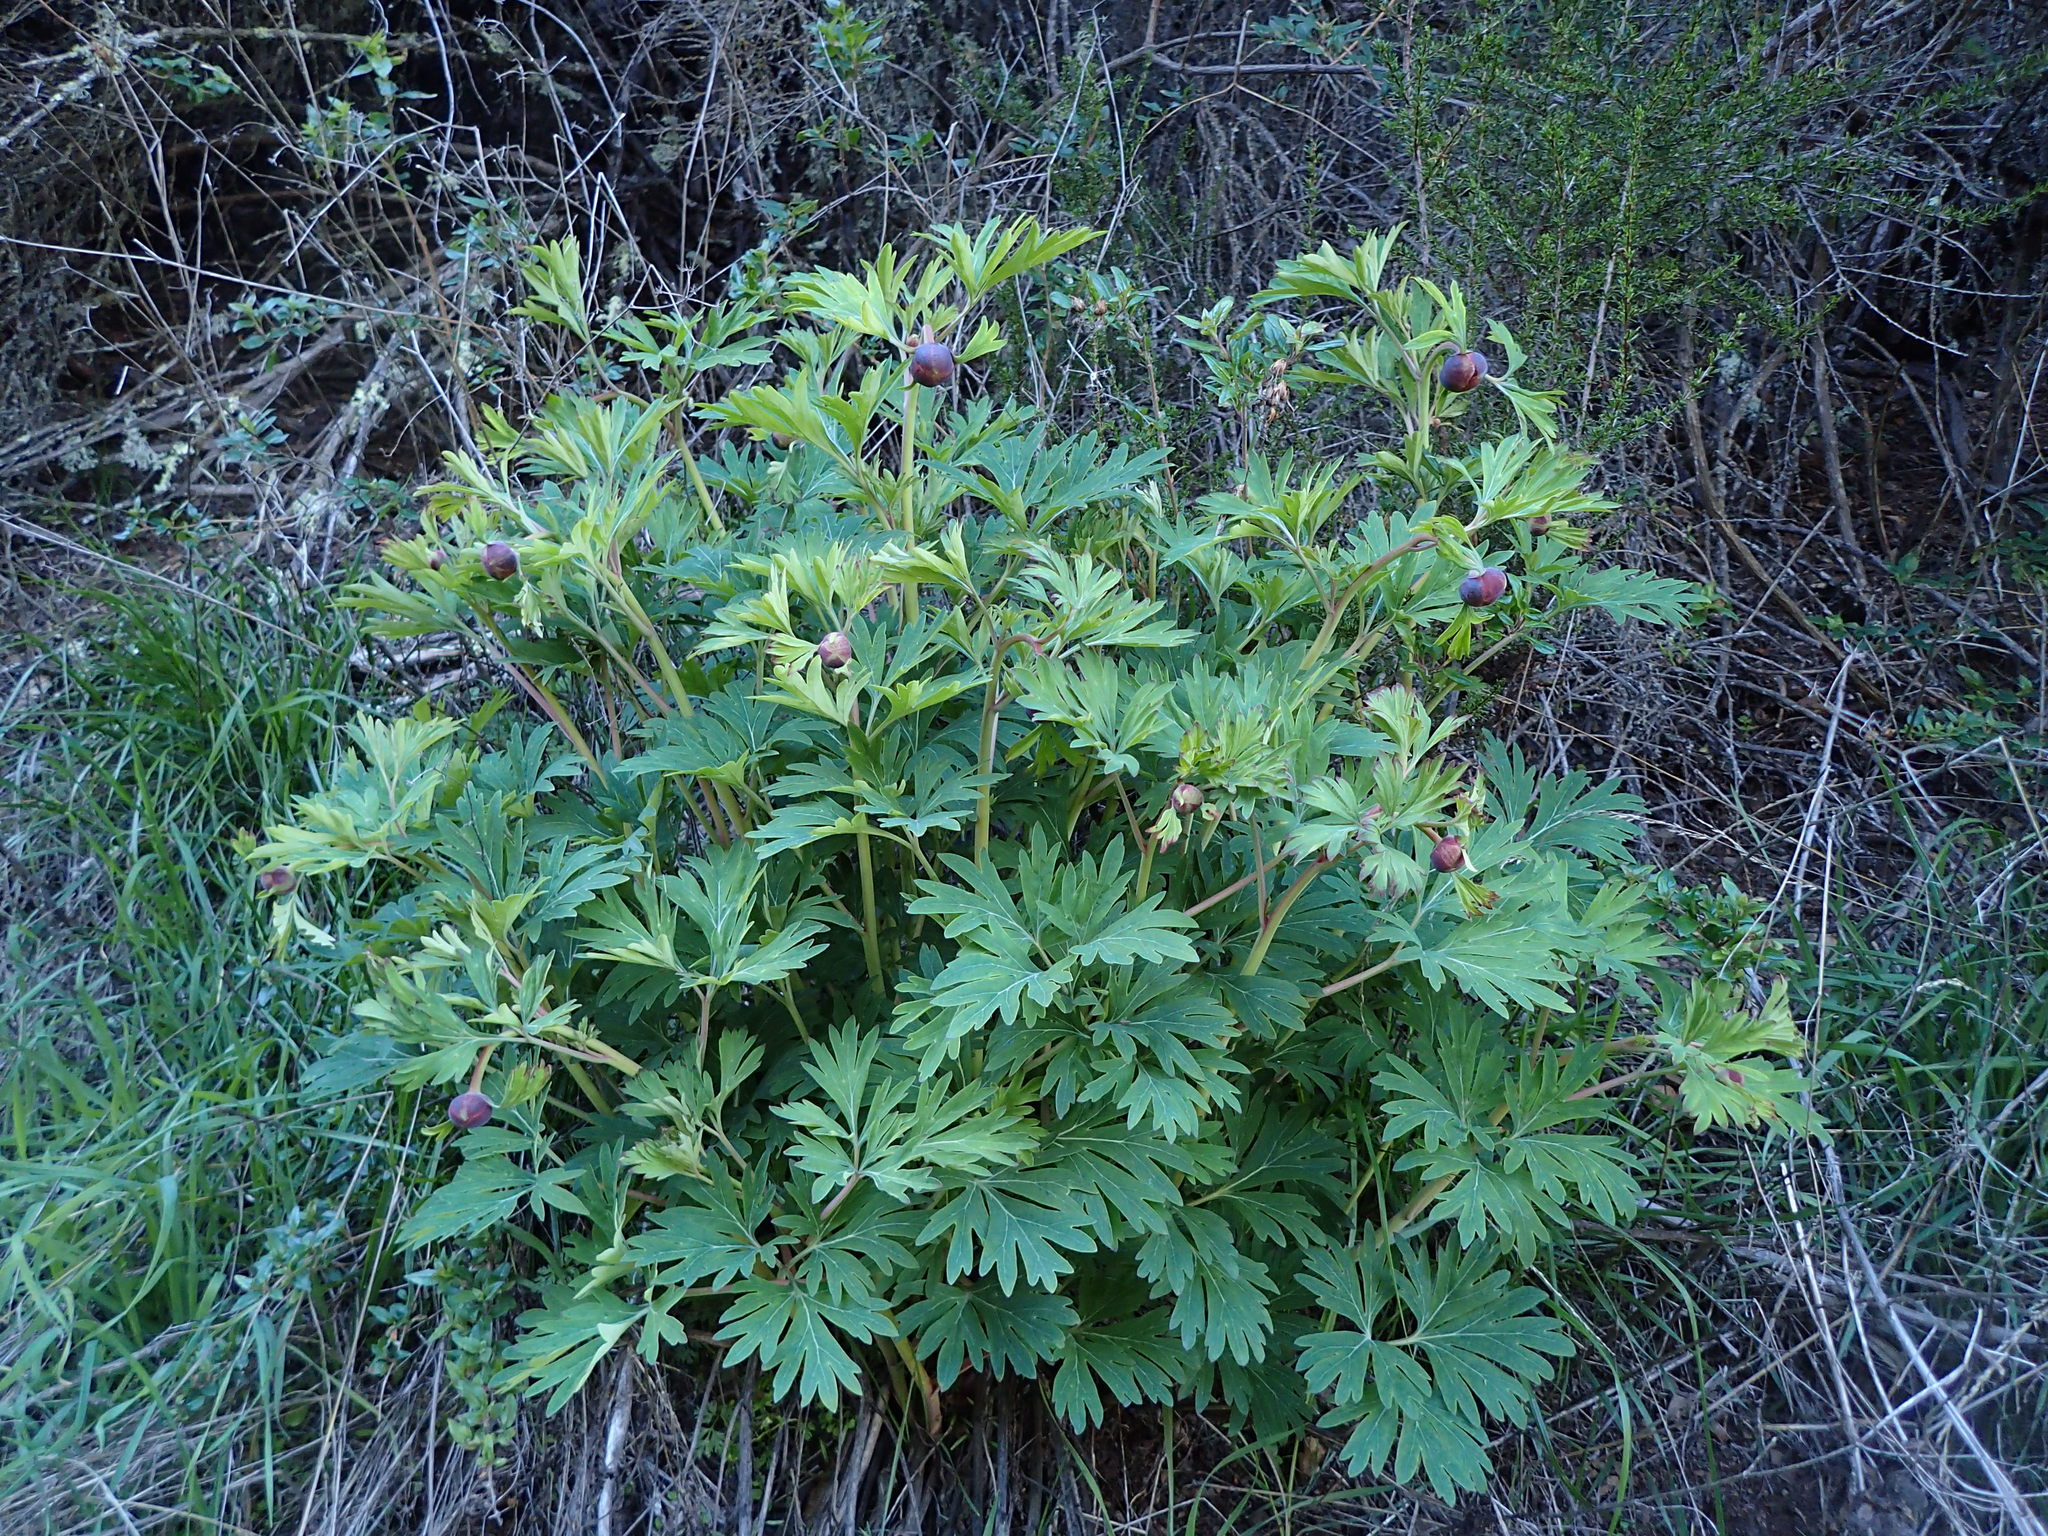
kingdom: Plantae
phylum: Tracheophyta
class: Magnoliopsida
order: Saxifragales
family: Paeoniaceae
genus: Paeonia
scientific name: Paeonia californica
